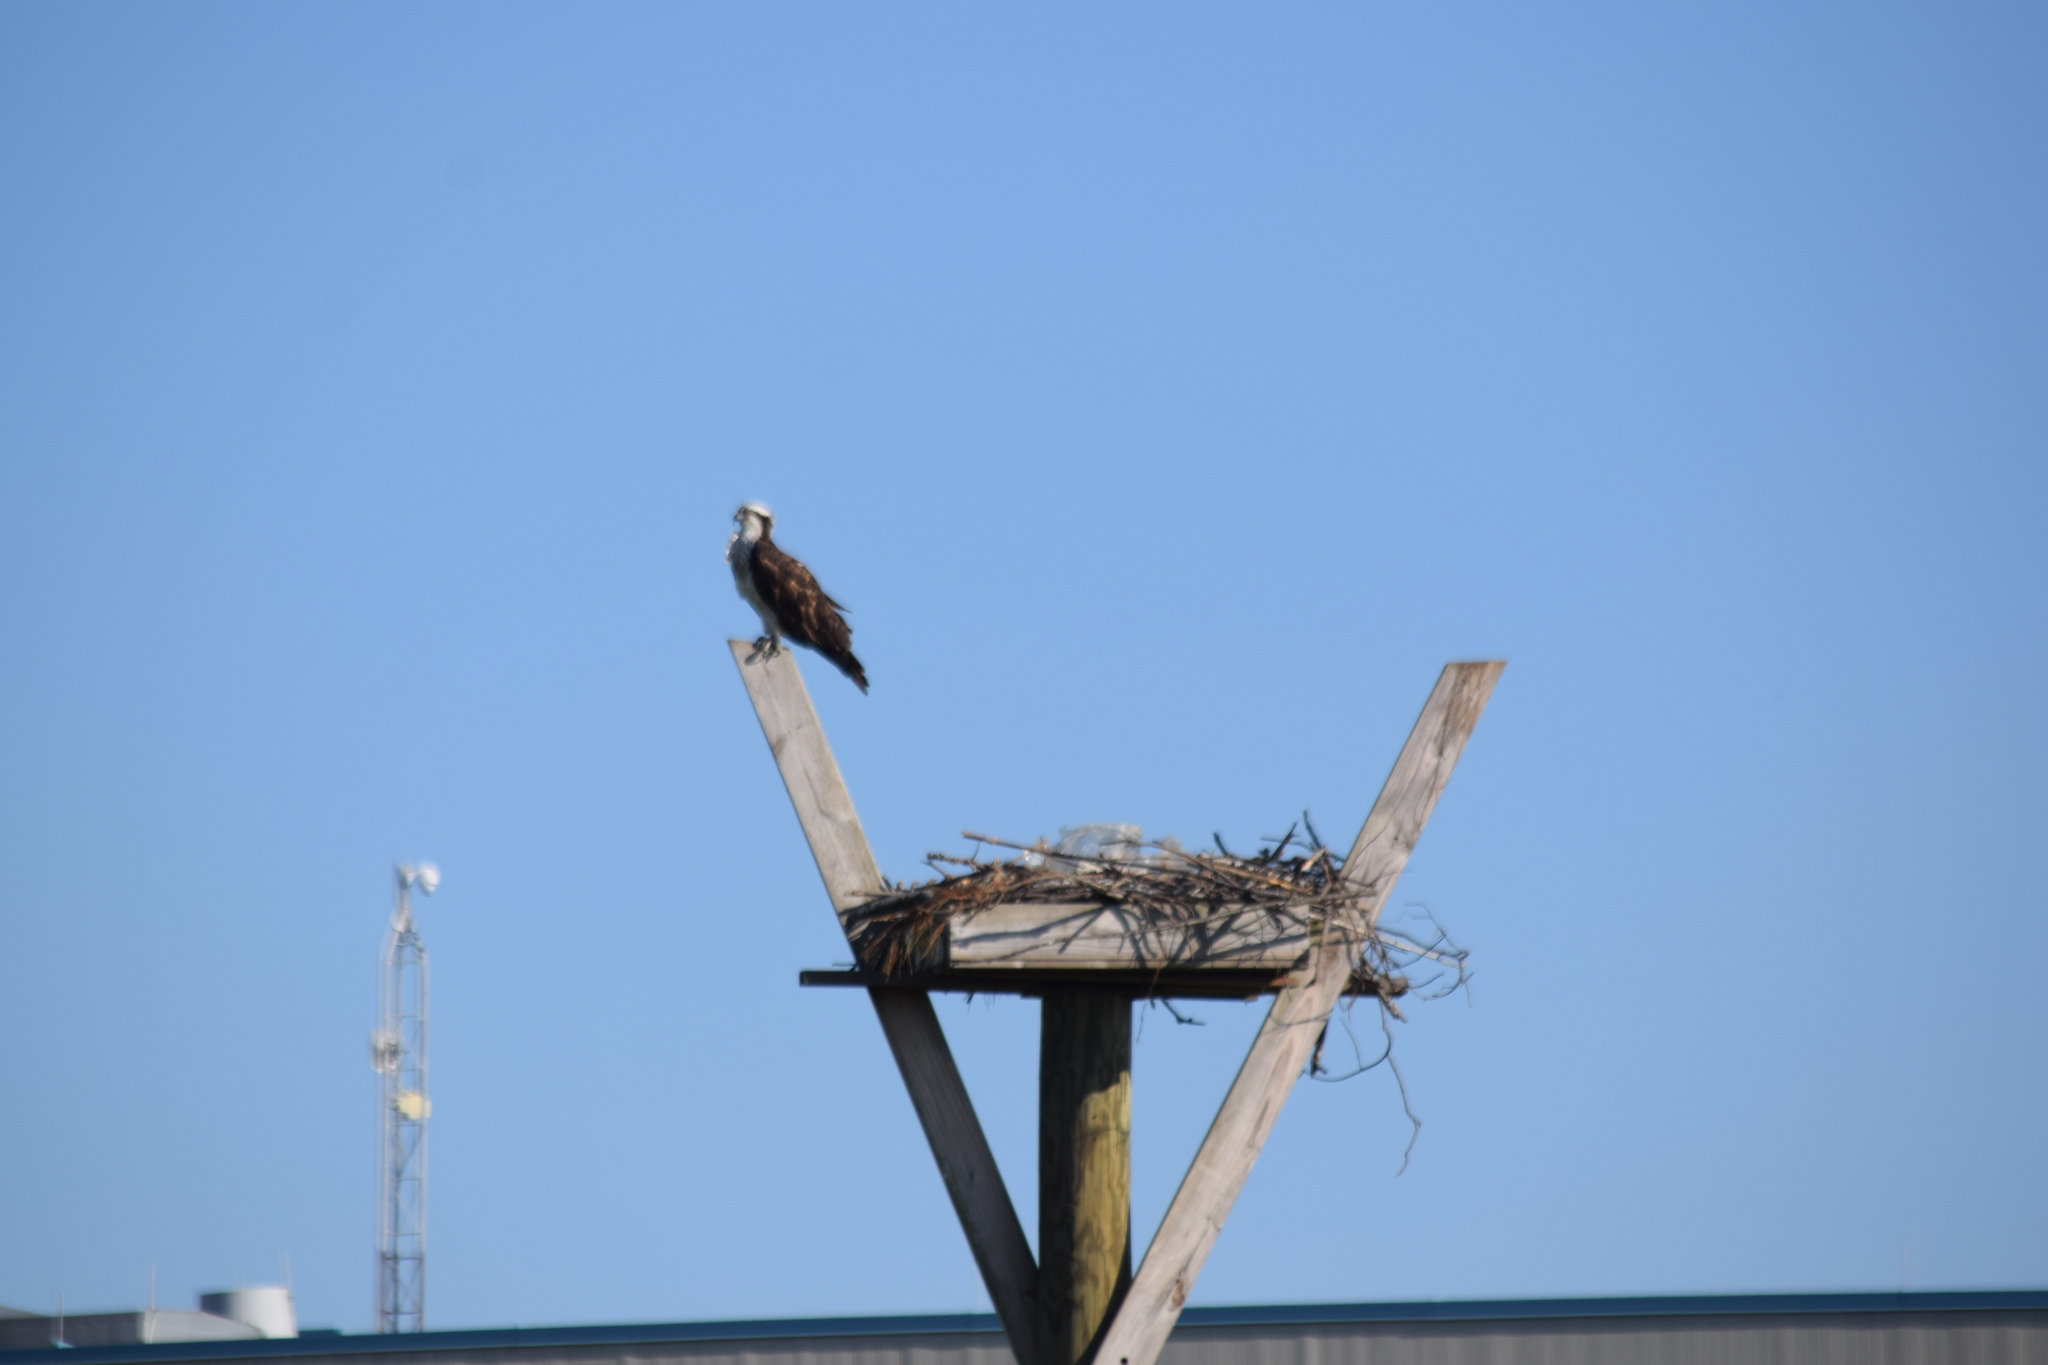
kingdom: Animalia
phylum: Chordata
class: Aves
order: Accipitriformes
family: Pandionidae
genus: Pandion
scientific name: Pandion haliaetus
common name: Osprey
